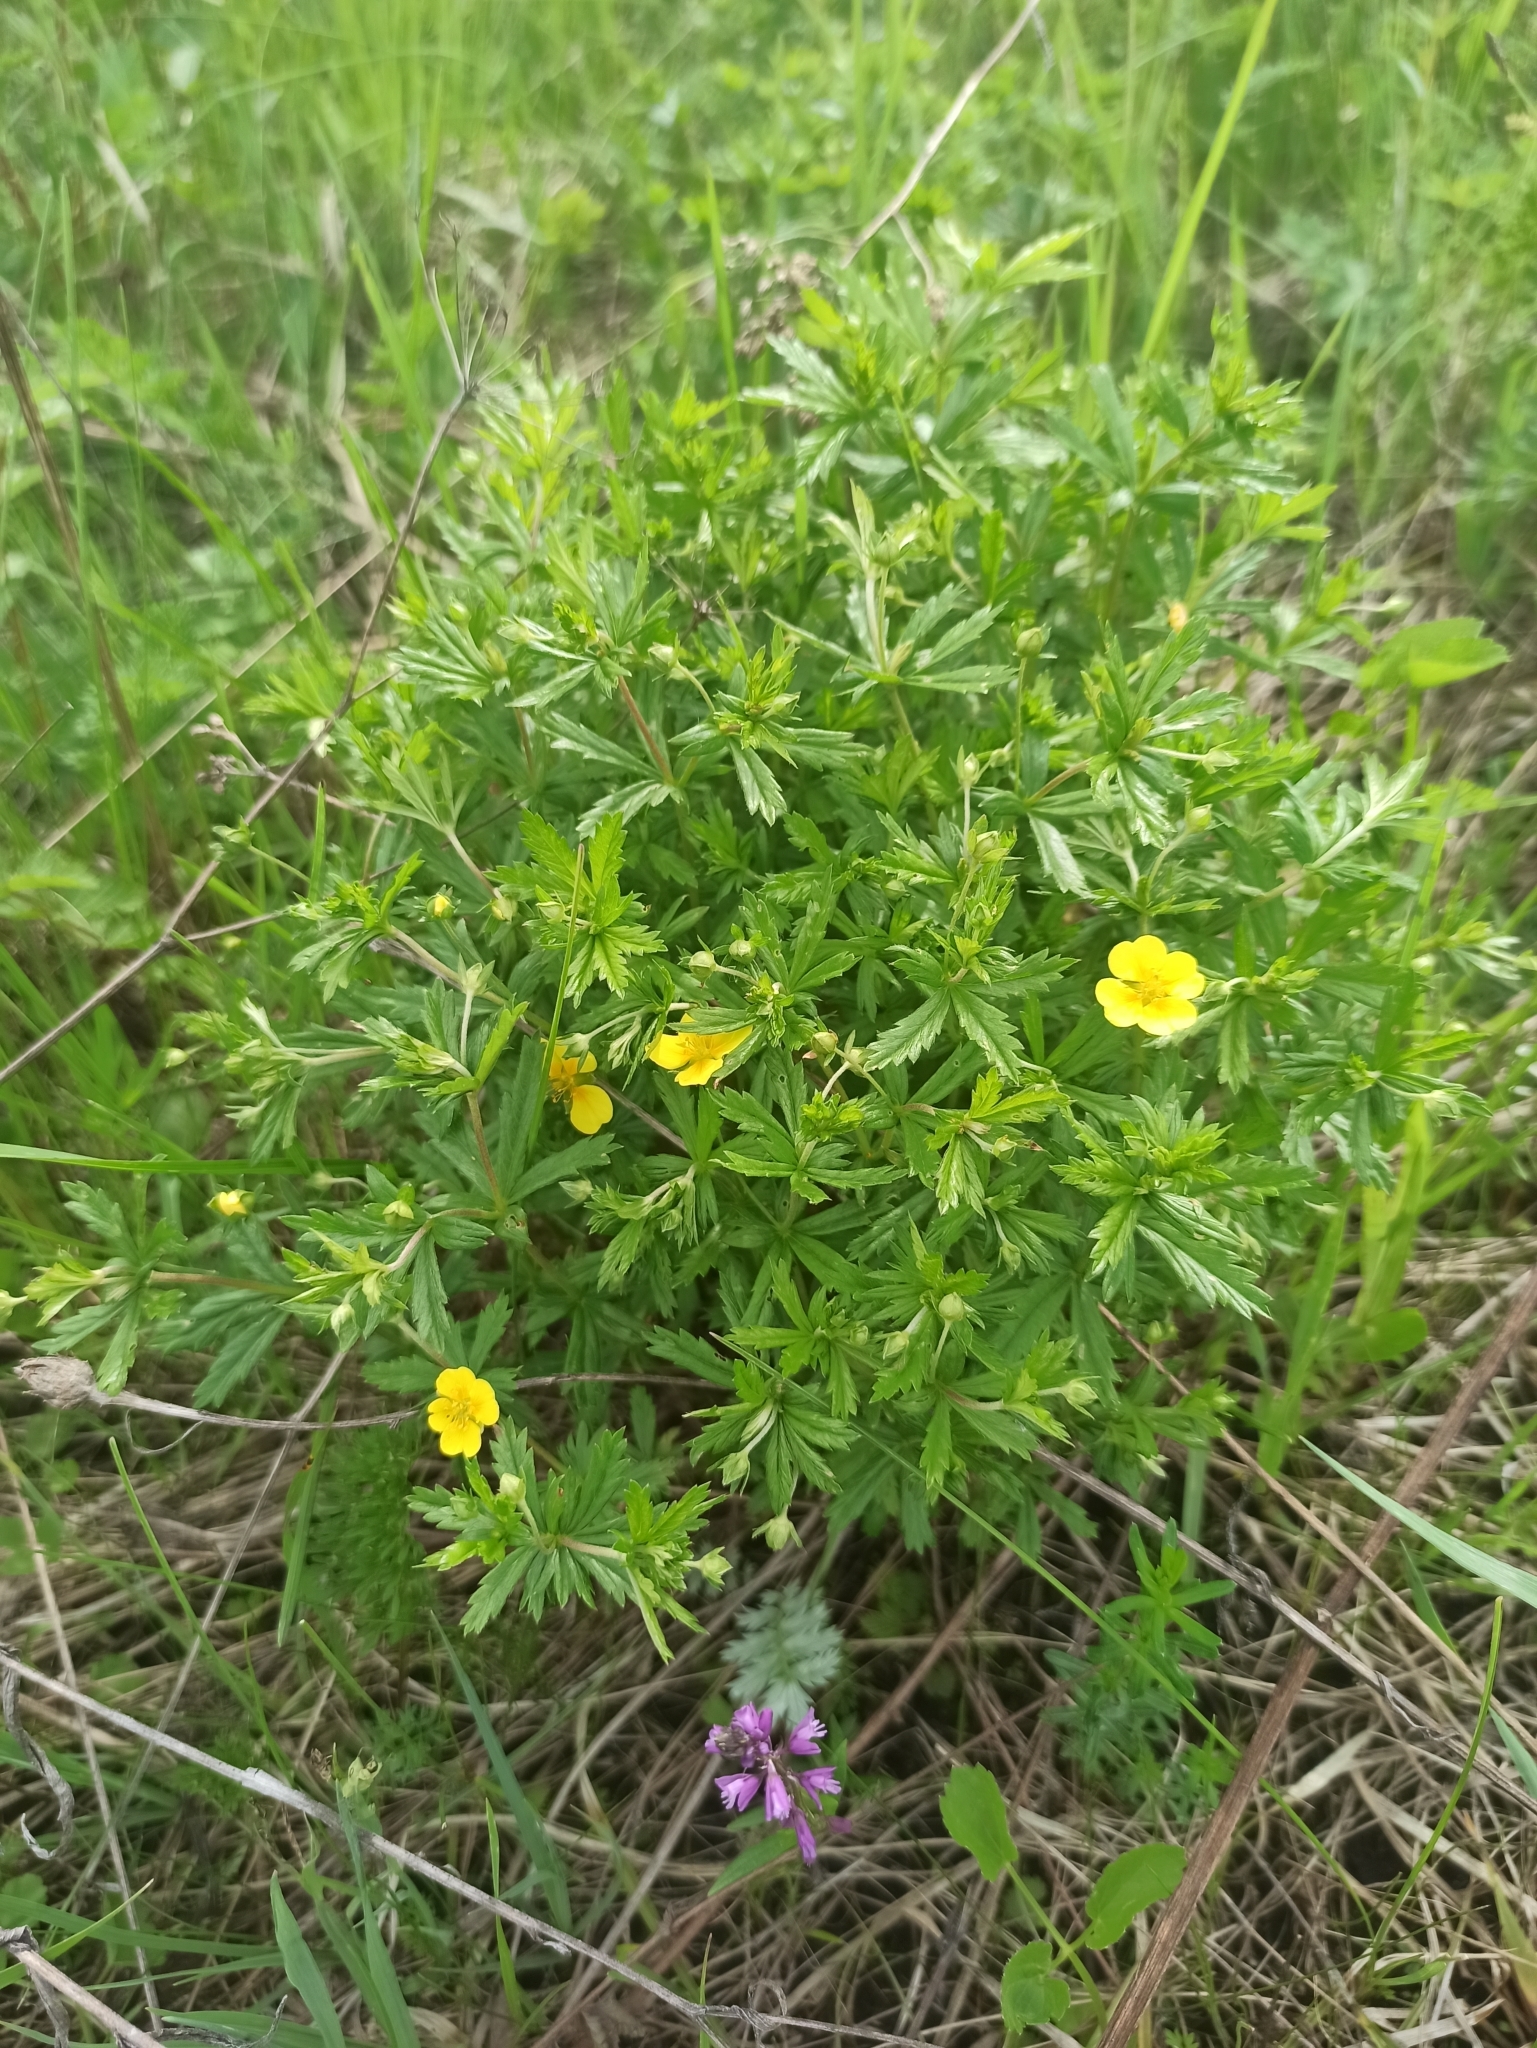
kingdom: Plantae
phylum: Tracheophyta
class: Magnoliopsida
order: Rosales
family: Rosaceae
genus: Potentilla
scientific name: Potentilla erecta
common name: Tormentil
